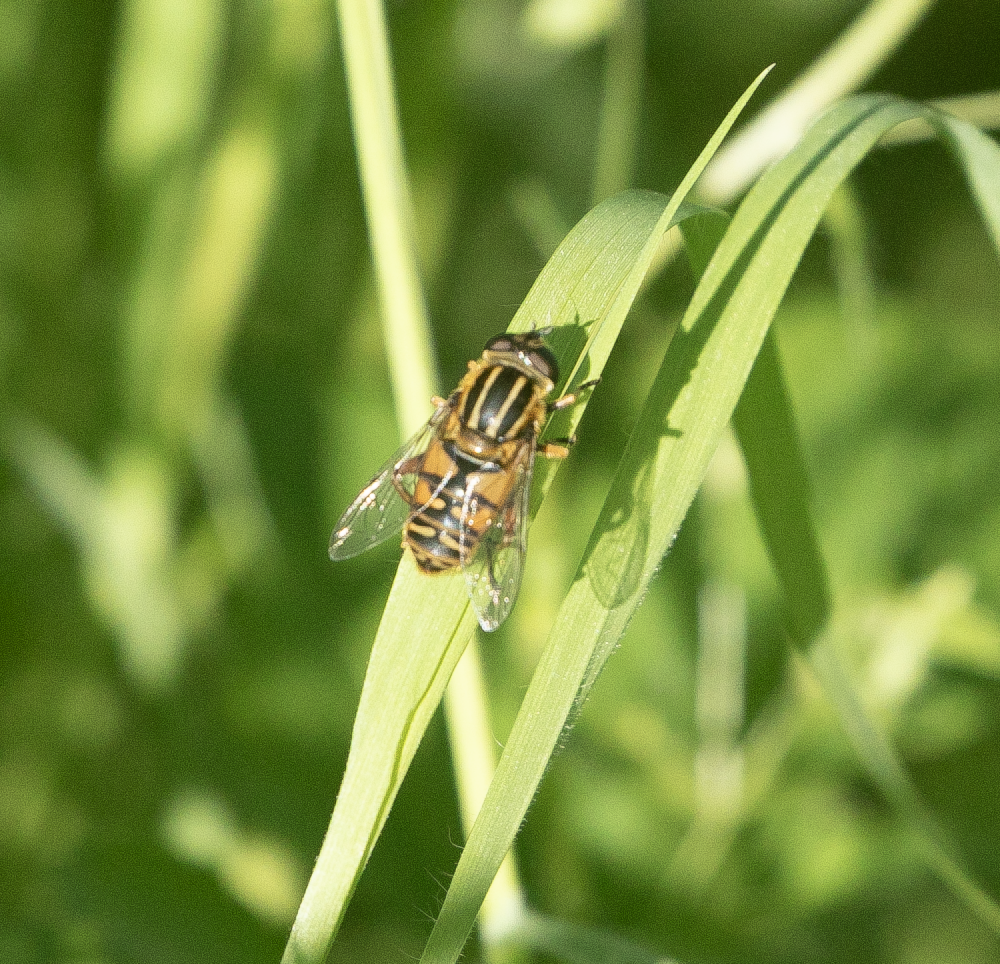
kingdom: Animalia
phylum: Arthropoda
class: Insecta
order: Diptera
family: Syrphidae
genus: Helophilus
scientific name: Helophilus pendulus
